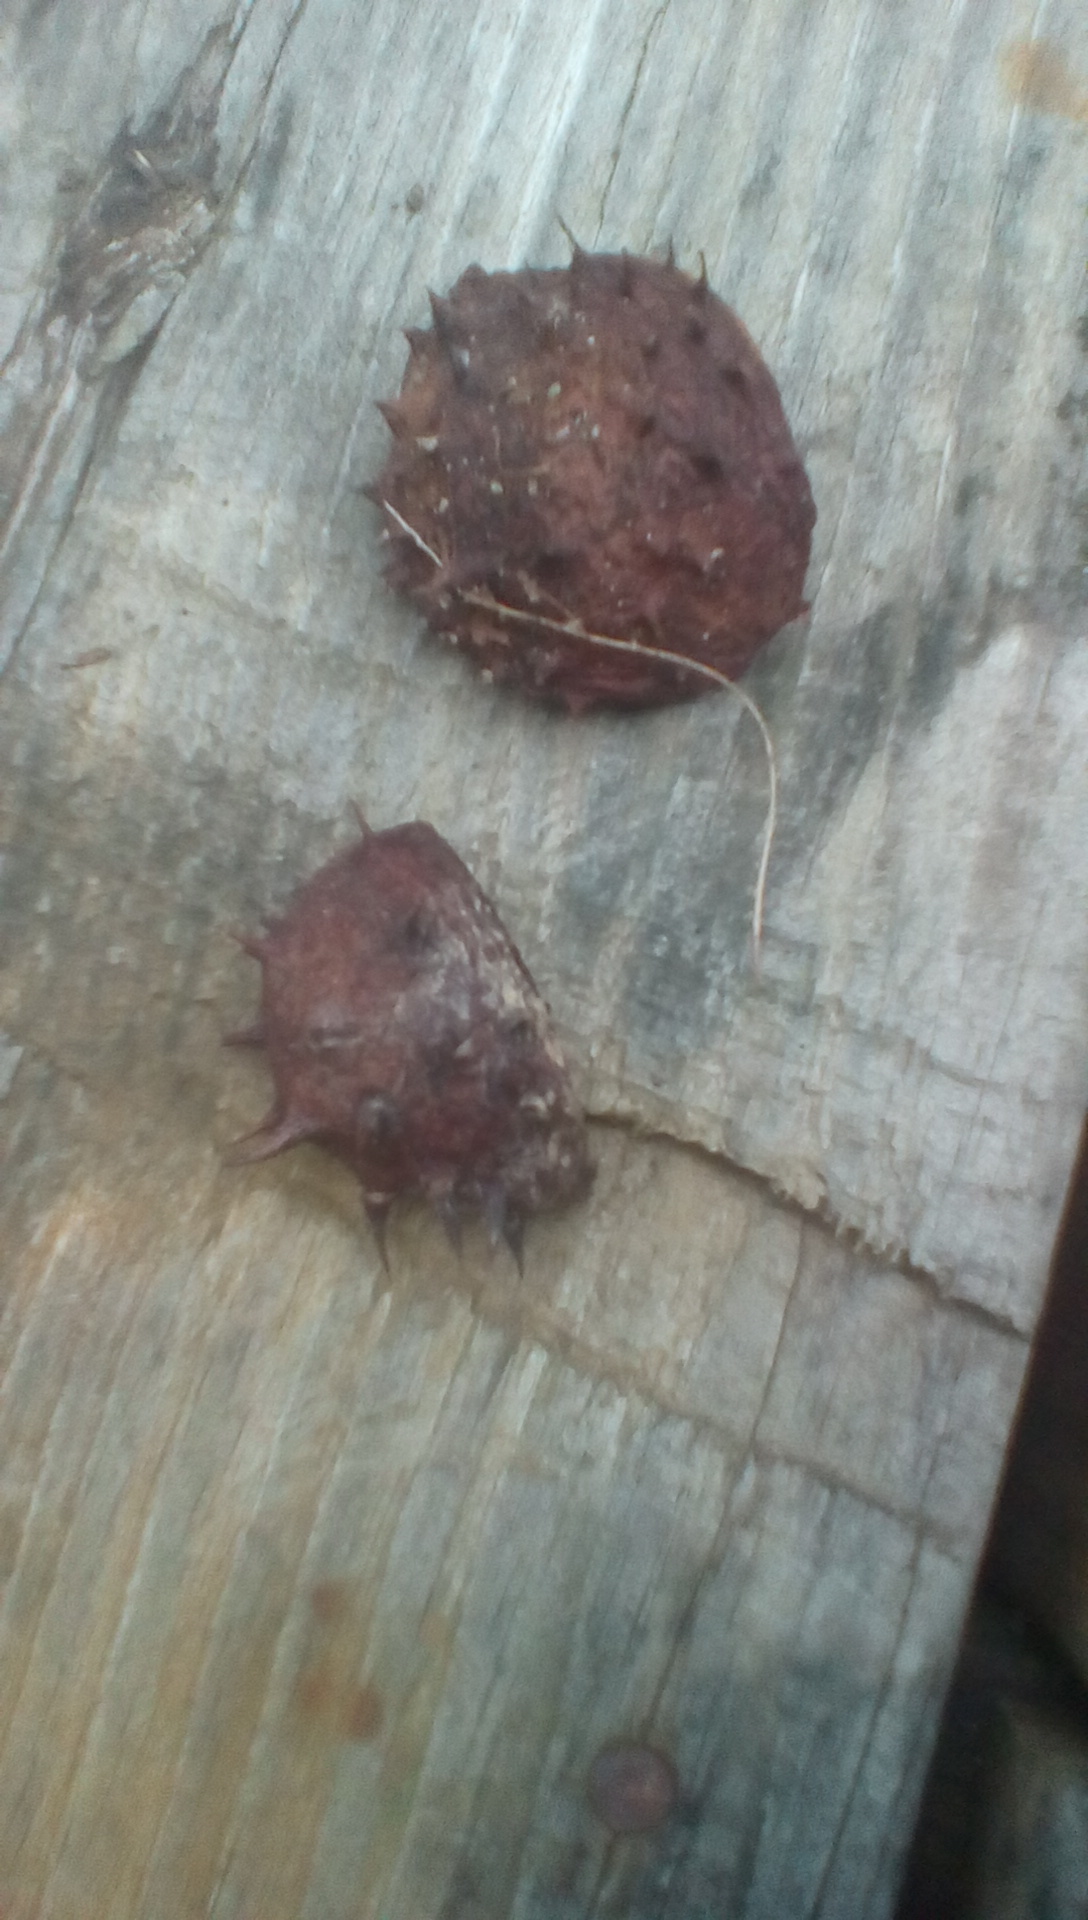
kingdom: Plantae
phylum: Tracheophyta
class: Magnoliopsida
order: Sapindales
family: Sapindaceae
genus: Aesculus
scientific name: Aesculus hippocastanum
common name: Horse-chestnut
